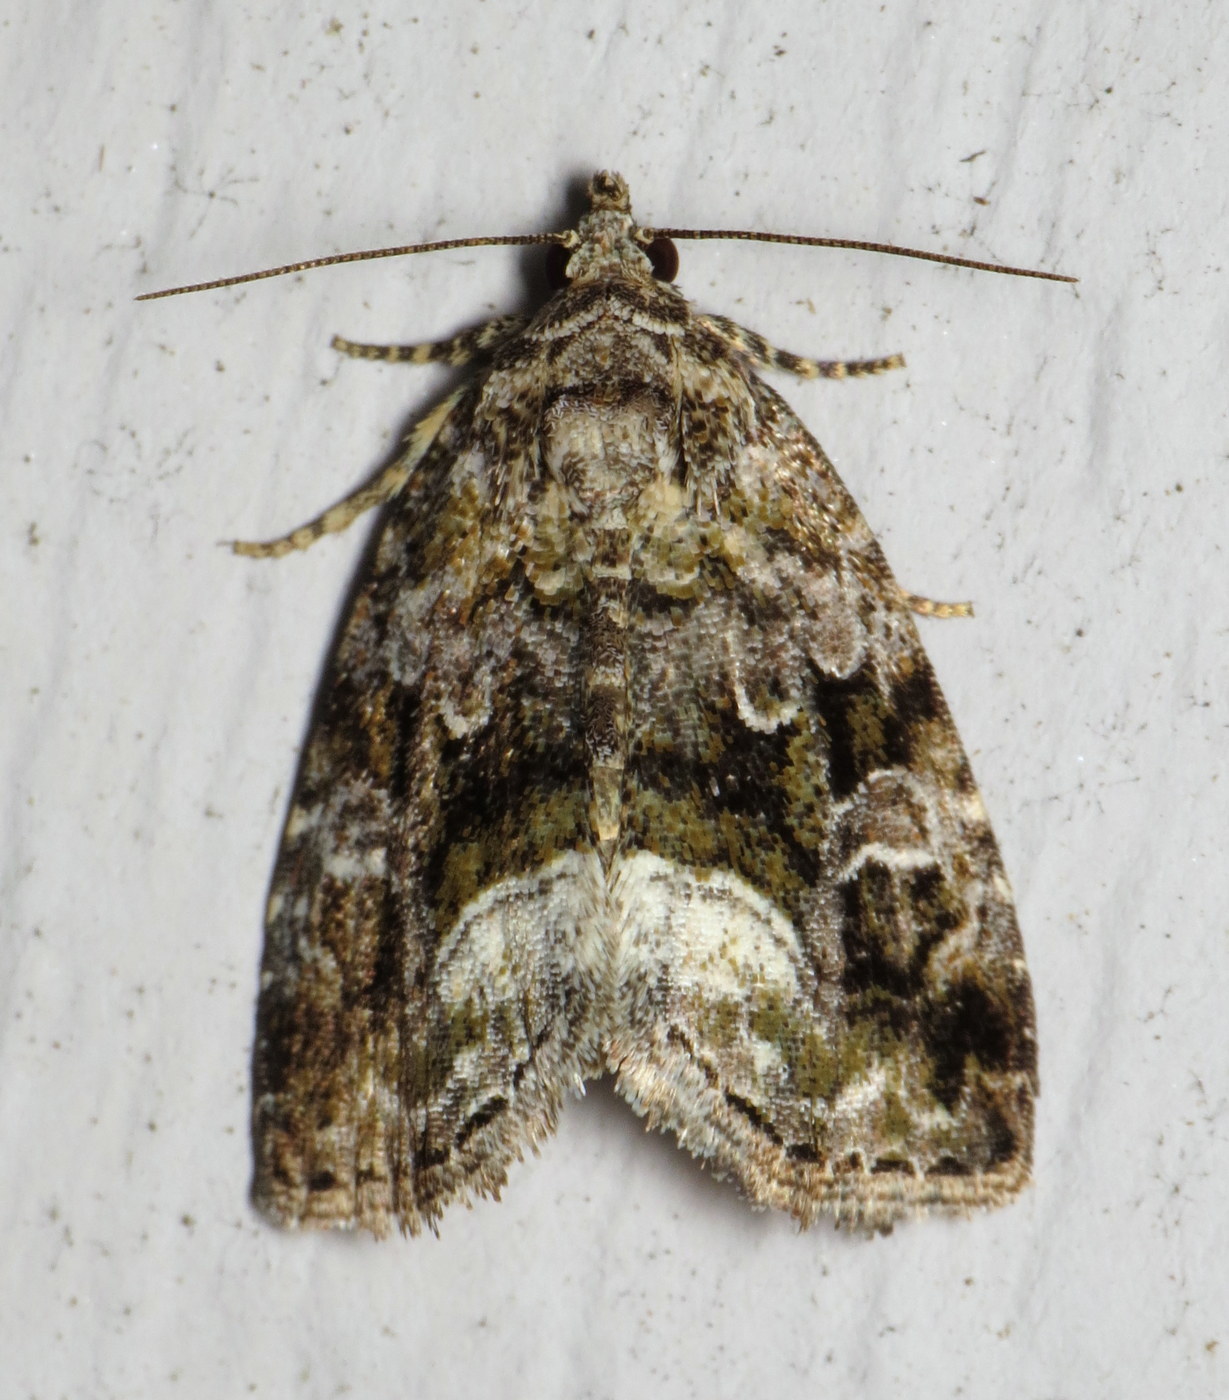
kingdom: Animalia
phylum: Arthropoda
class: Insecta
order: Lepidoptera
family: Noctuidae
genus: Protodeltote
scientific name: Protodeltote muscosula
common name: Large mossy glyph
